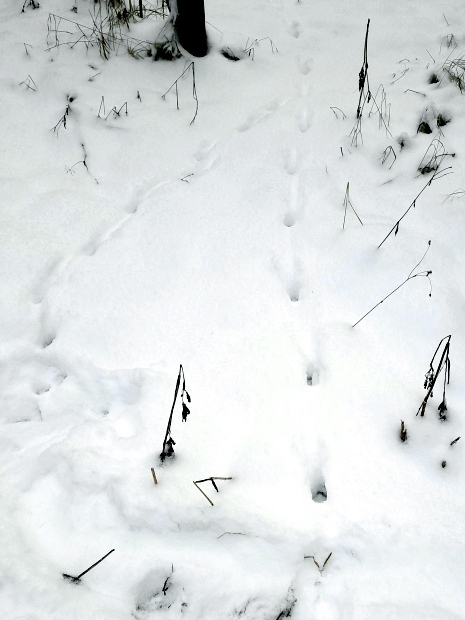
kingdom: Animalia
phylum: Chordata
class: Mammalia
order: Carnivora
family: Canidae
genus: Vulpes
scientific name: Vulpes vulpes
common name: Red fox
